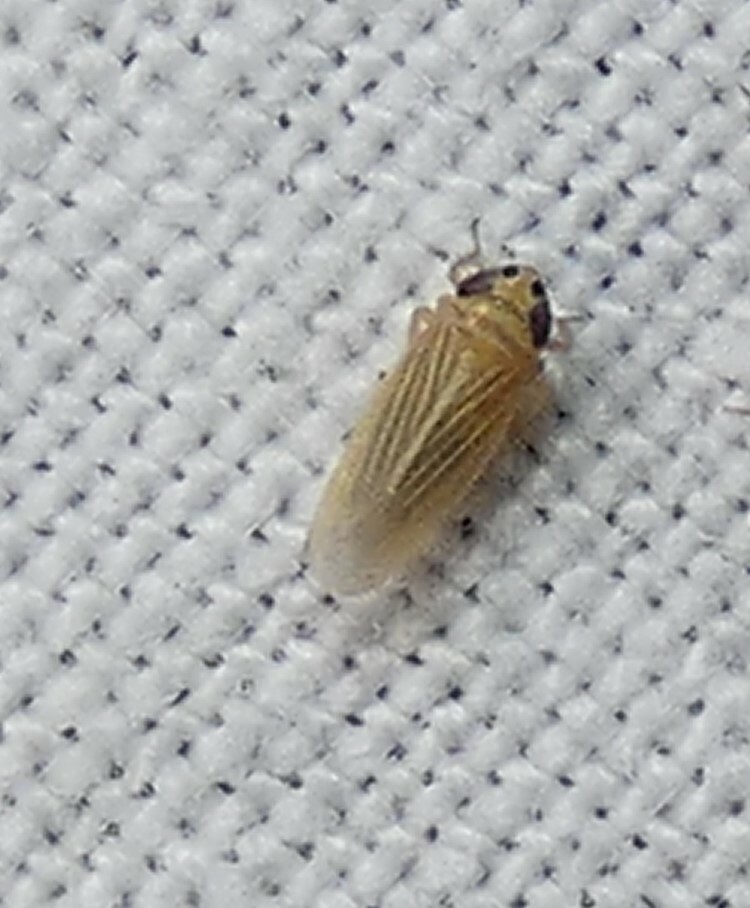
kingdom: Animalia
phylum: Arthropoda
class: Insecta
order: Hemiptera
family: Cicadellidae
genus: Graminella
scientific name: Graminella villicus
